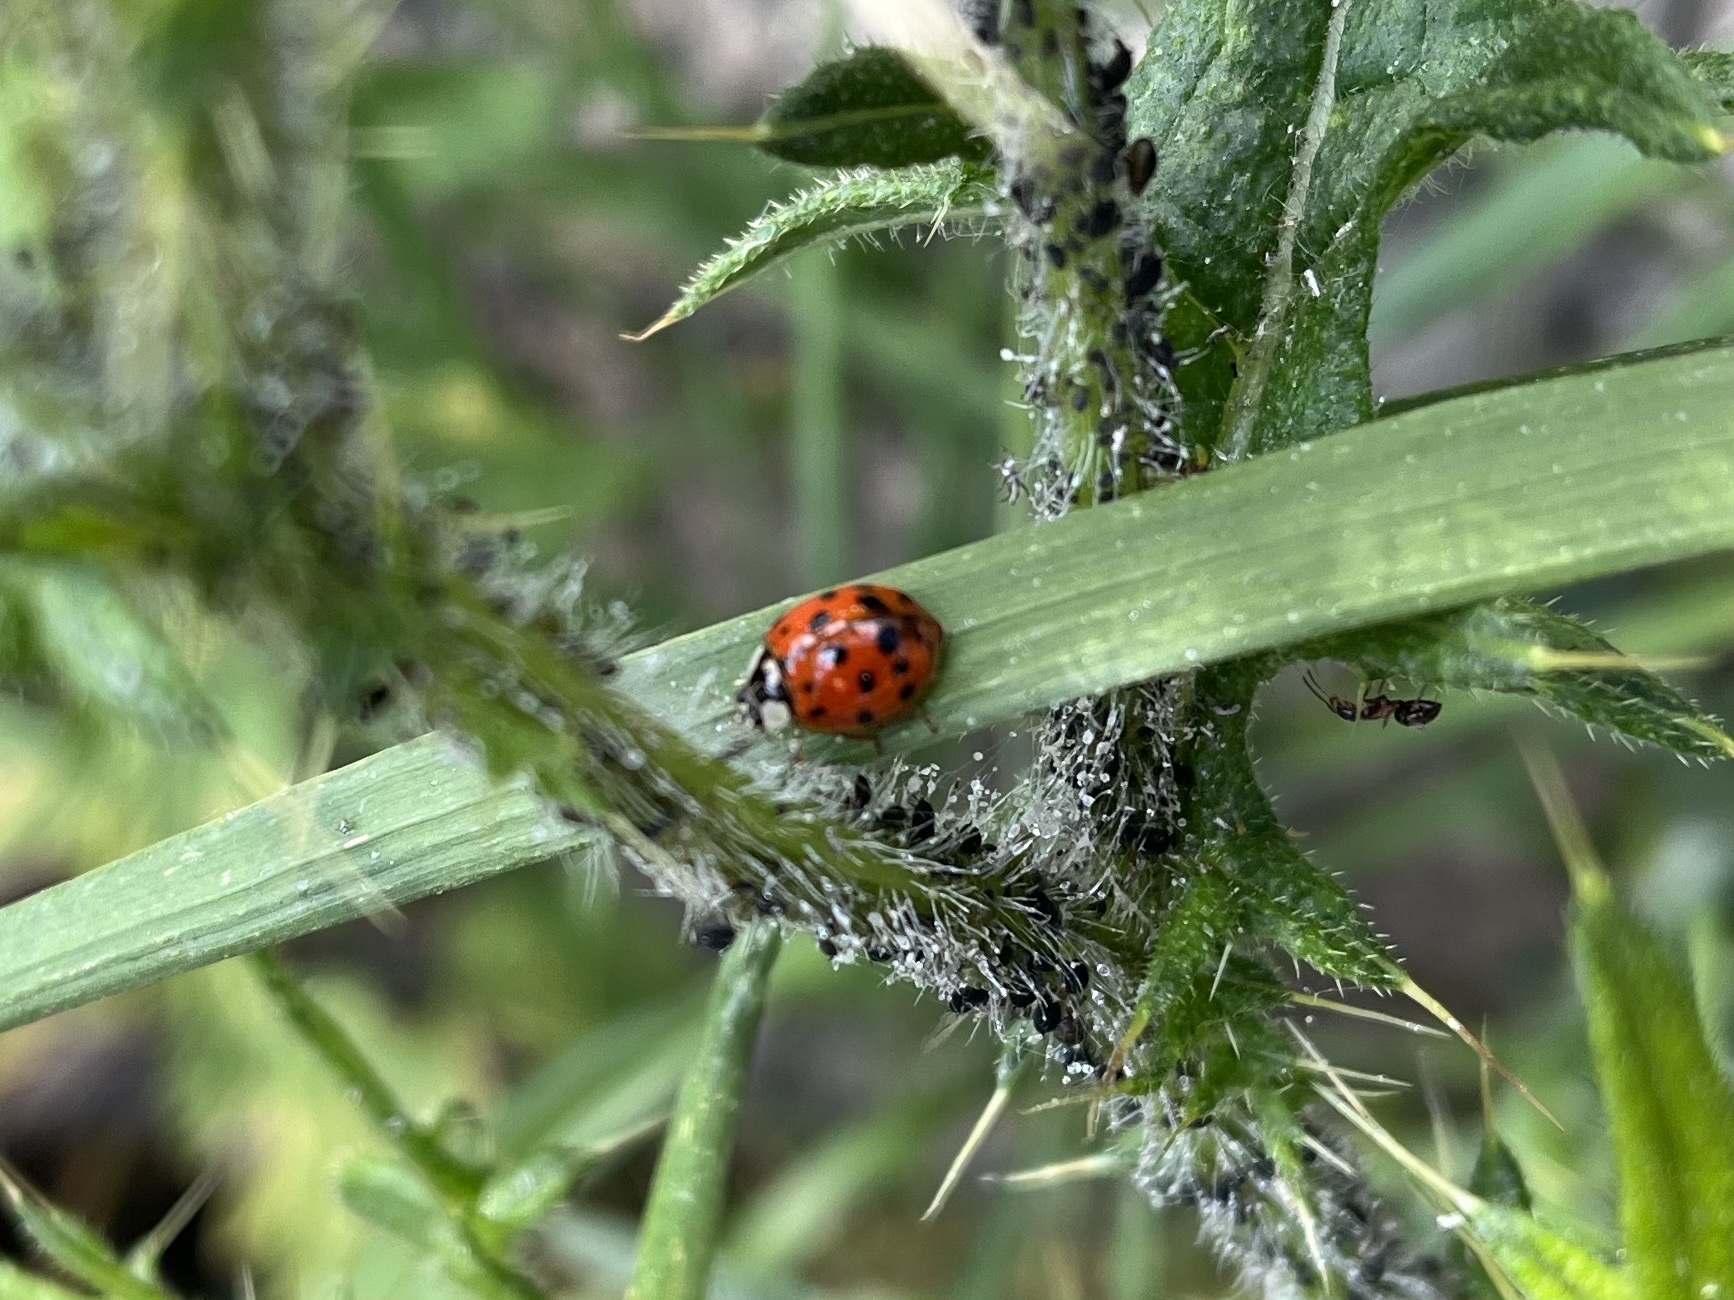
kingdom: Animalia
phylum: Arthropoda
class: Insecta
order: Coleoptera
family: Coccinellidae
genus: Harmonia
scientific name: Harmonia axyridis
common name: Harlequin ladybird
